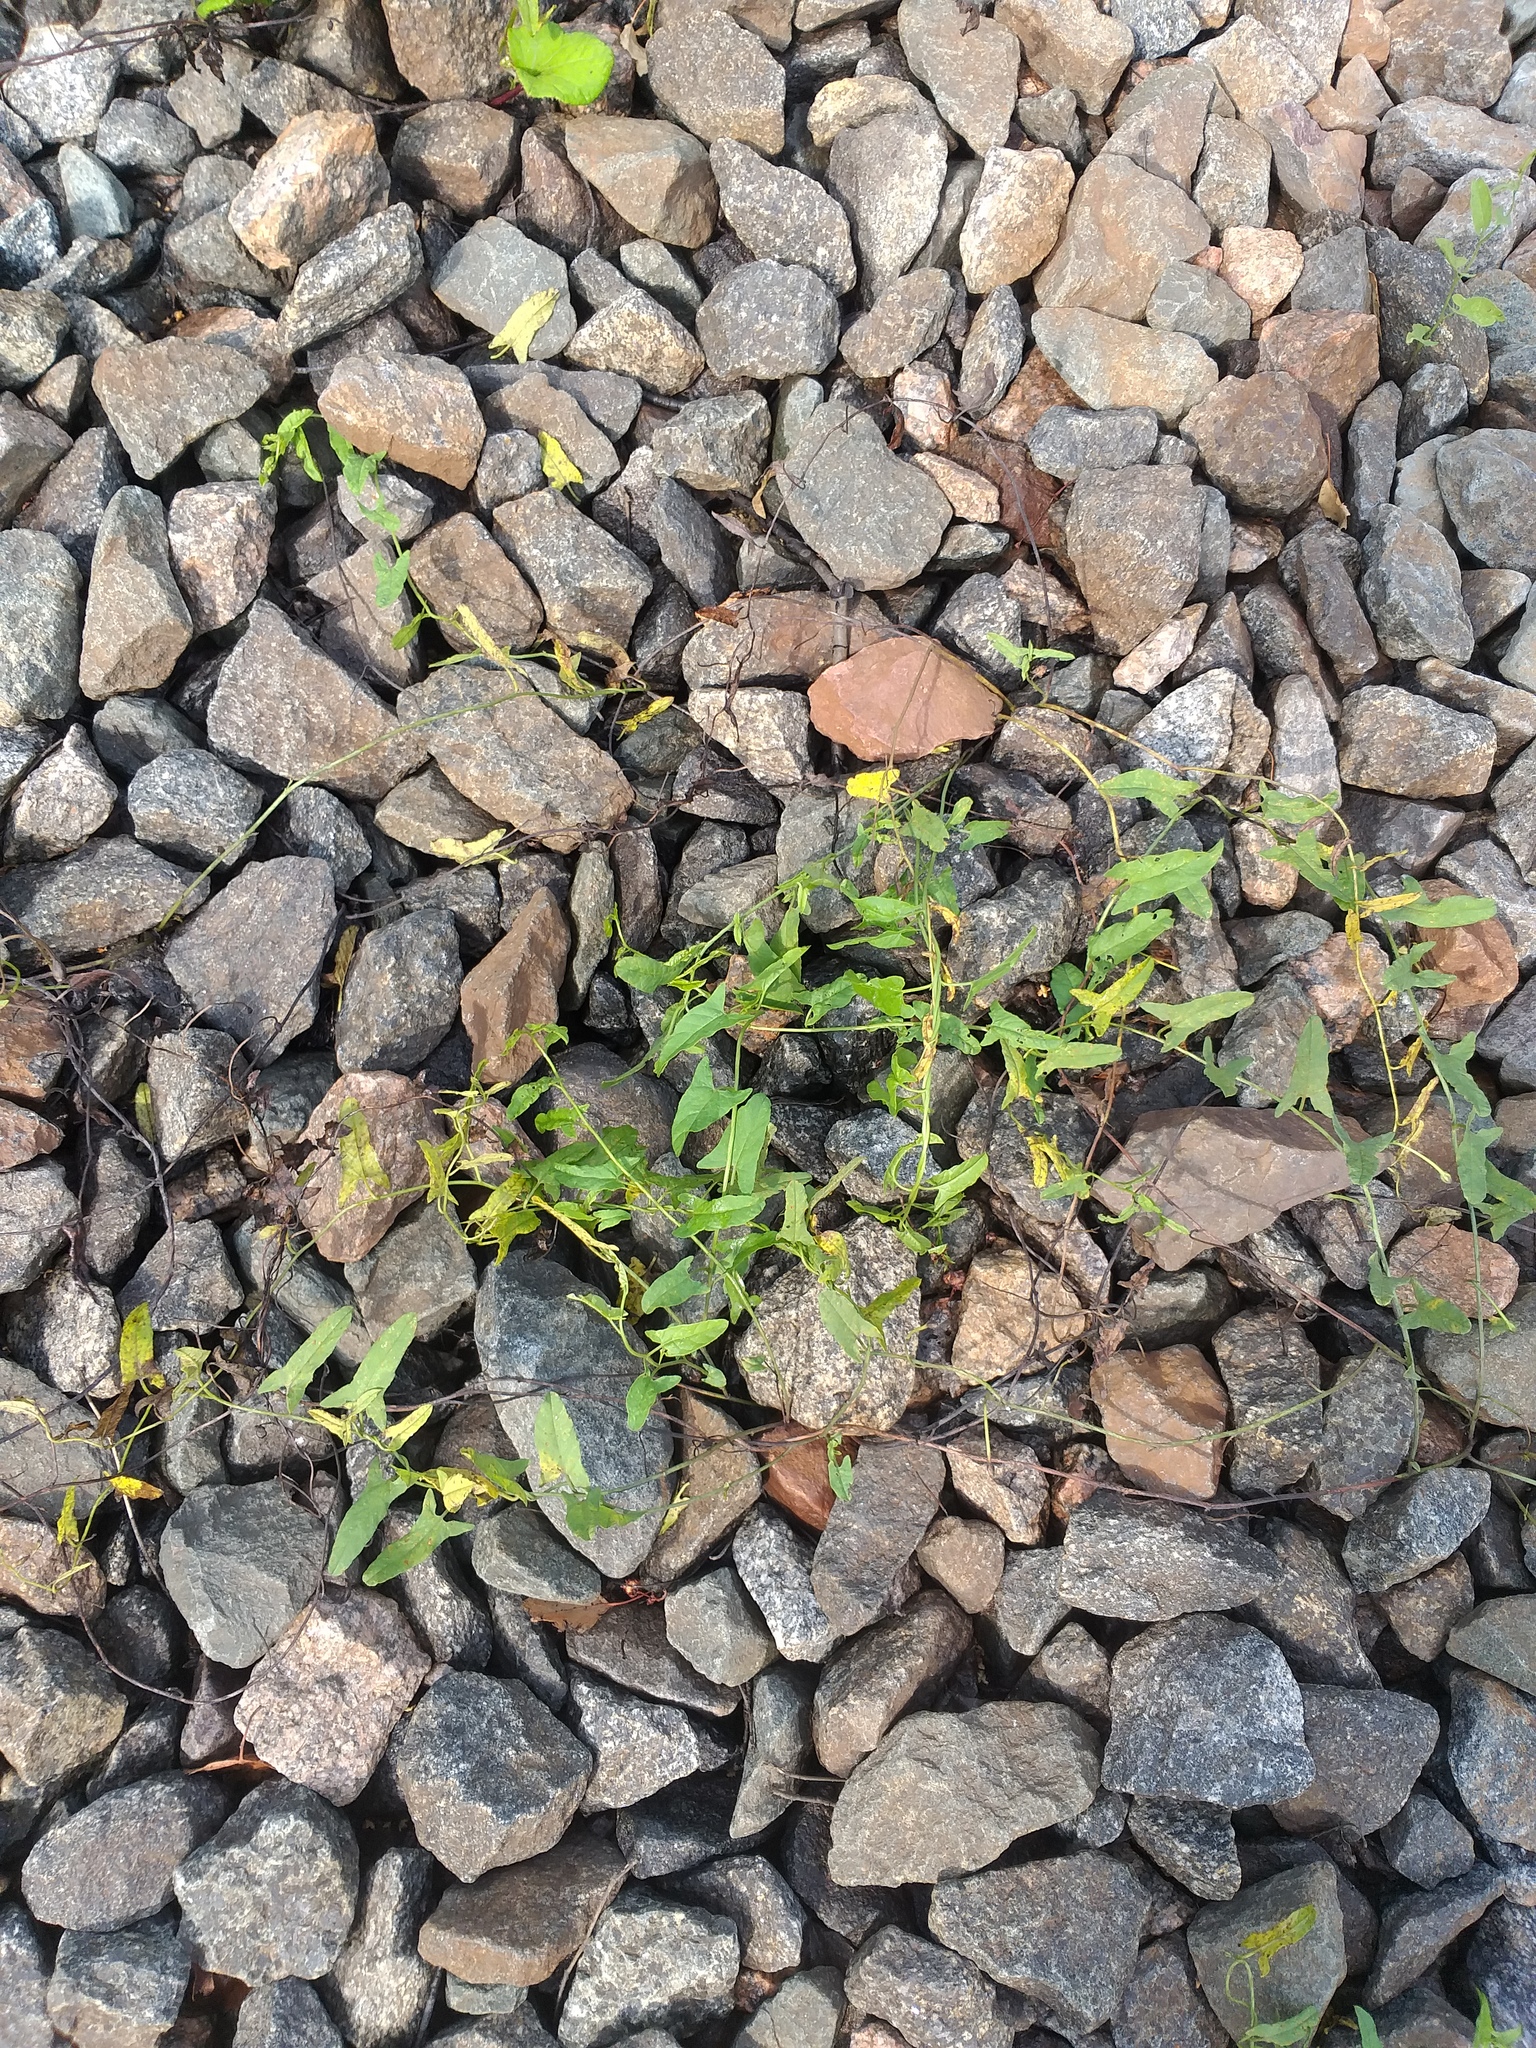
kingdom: Plantae
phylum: Tracheophyta
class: Magnoliopsida
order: Solanales
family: Convolvulaceae
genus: Convolvulus
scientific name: Convolvulus arvensis
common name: Field bindweed
